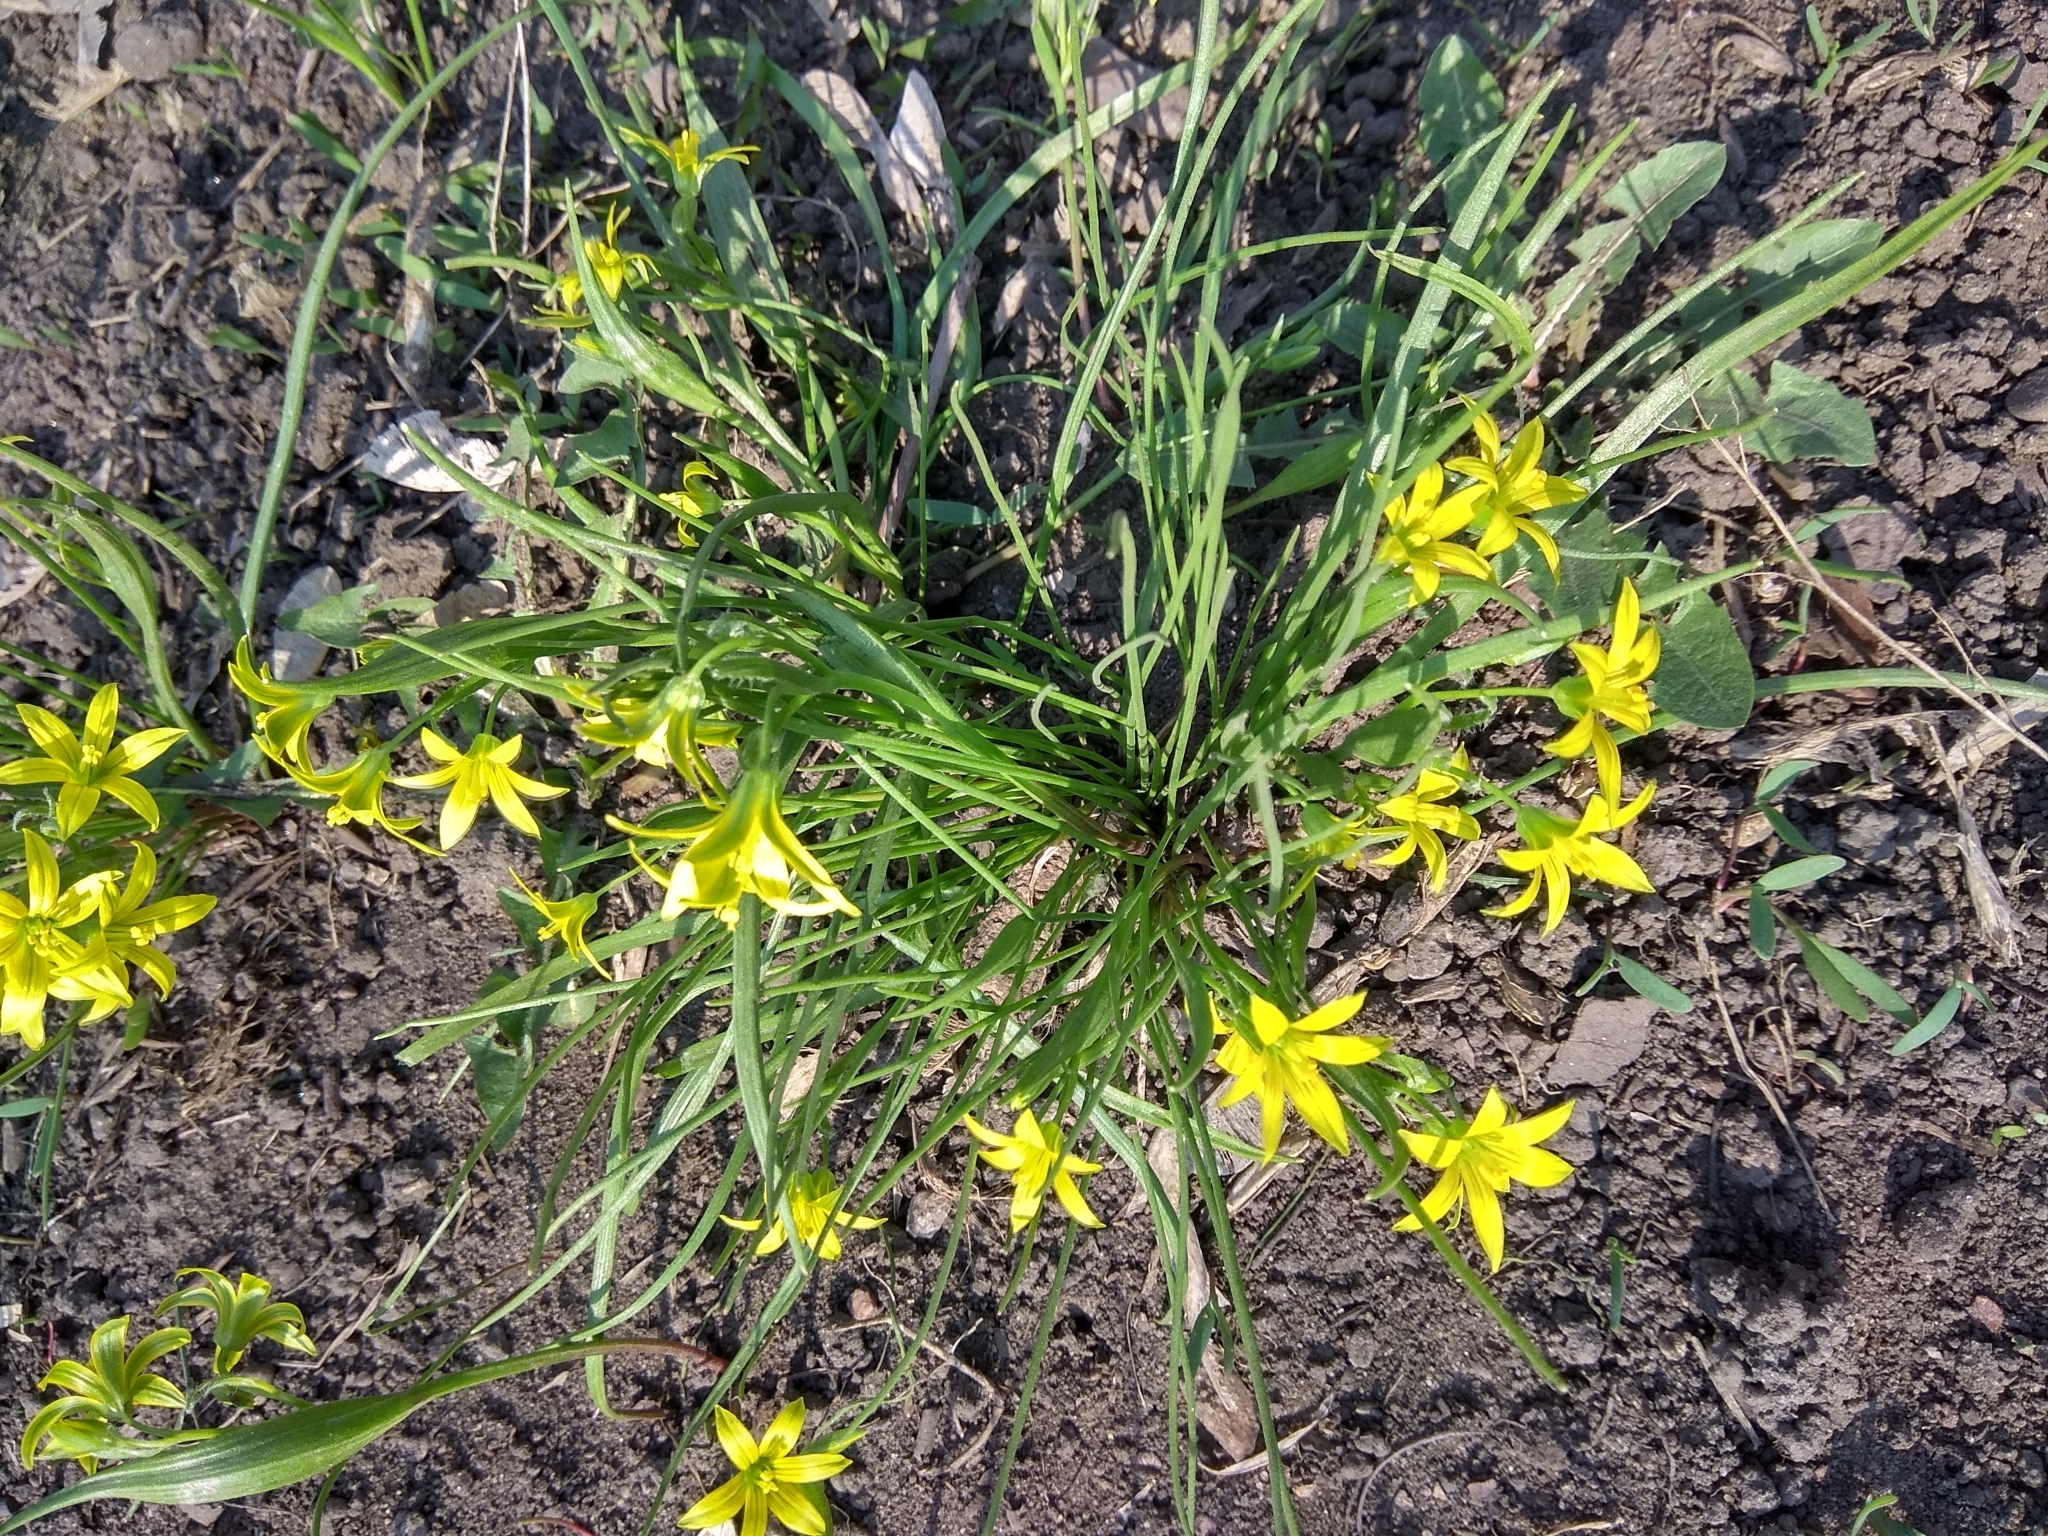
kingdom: Plantae
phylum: Tracheophyta
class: Liliopsida
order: Liliales
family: Liliaceae
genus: Gagea
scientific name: Gagea minima
